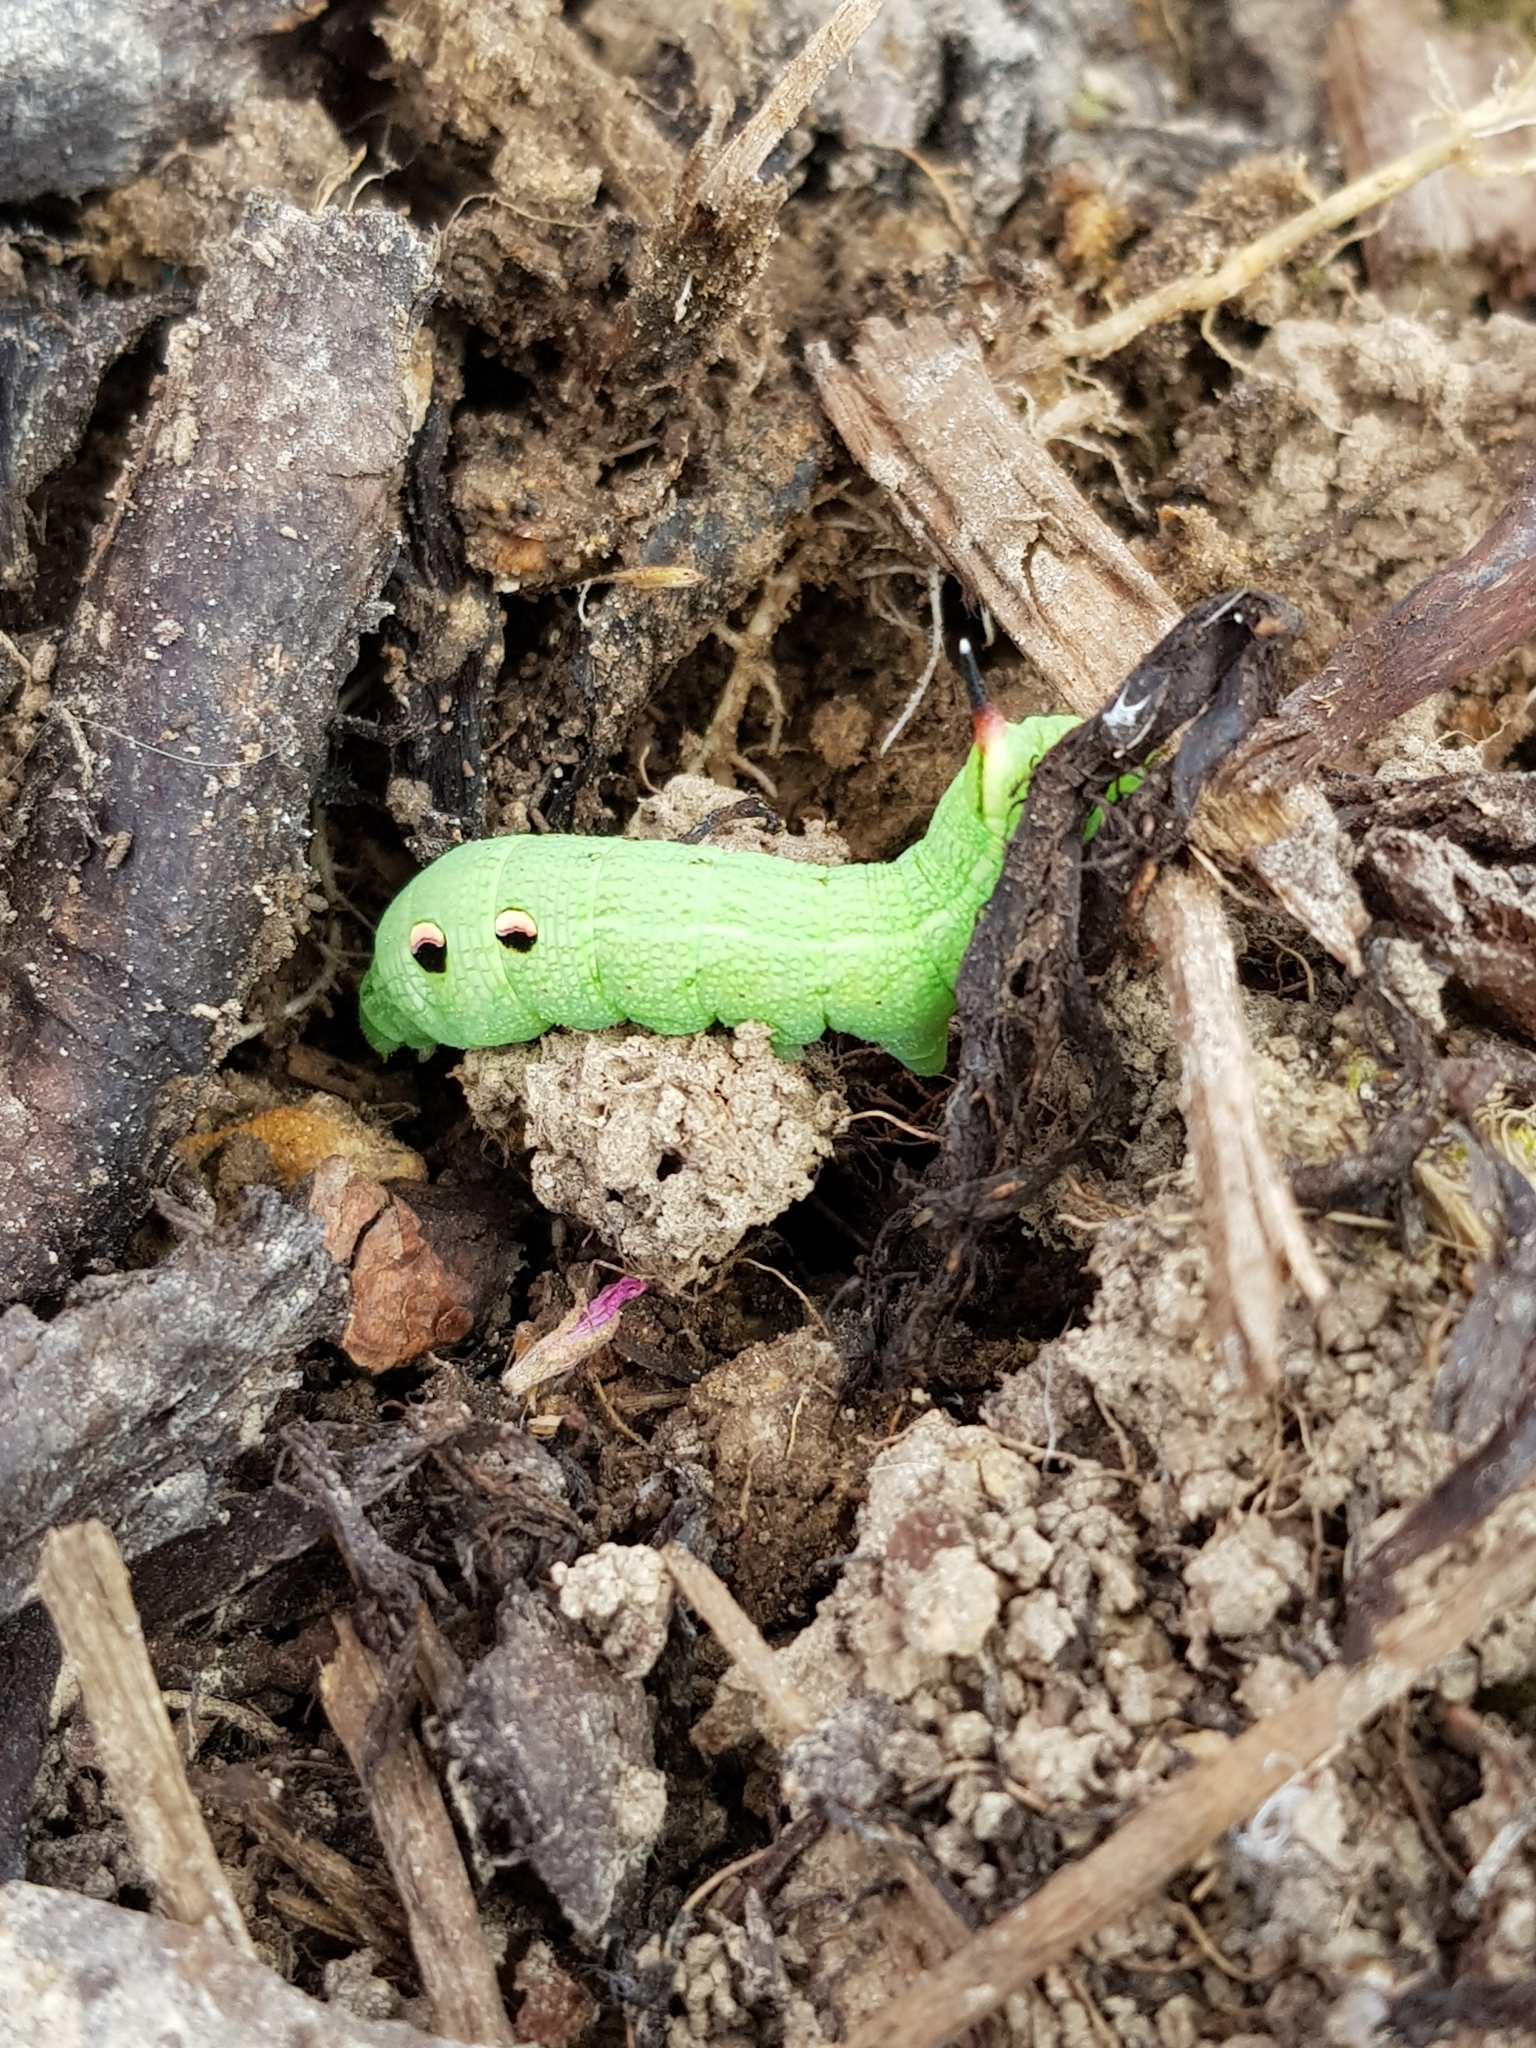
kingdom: Animalia
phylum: Arthropoda
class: Insecta
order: Lepidoptera
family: Sphingidae
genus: Deilephila
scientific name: Deilephila elpenor
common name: Elephant hawk-moth
